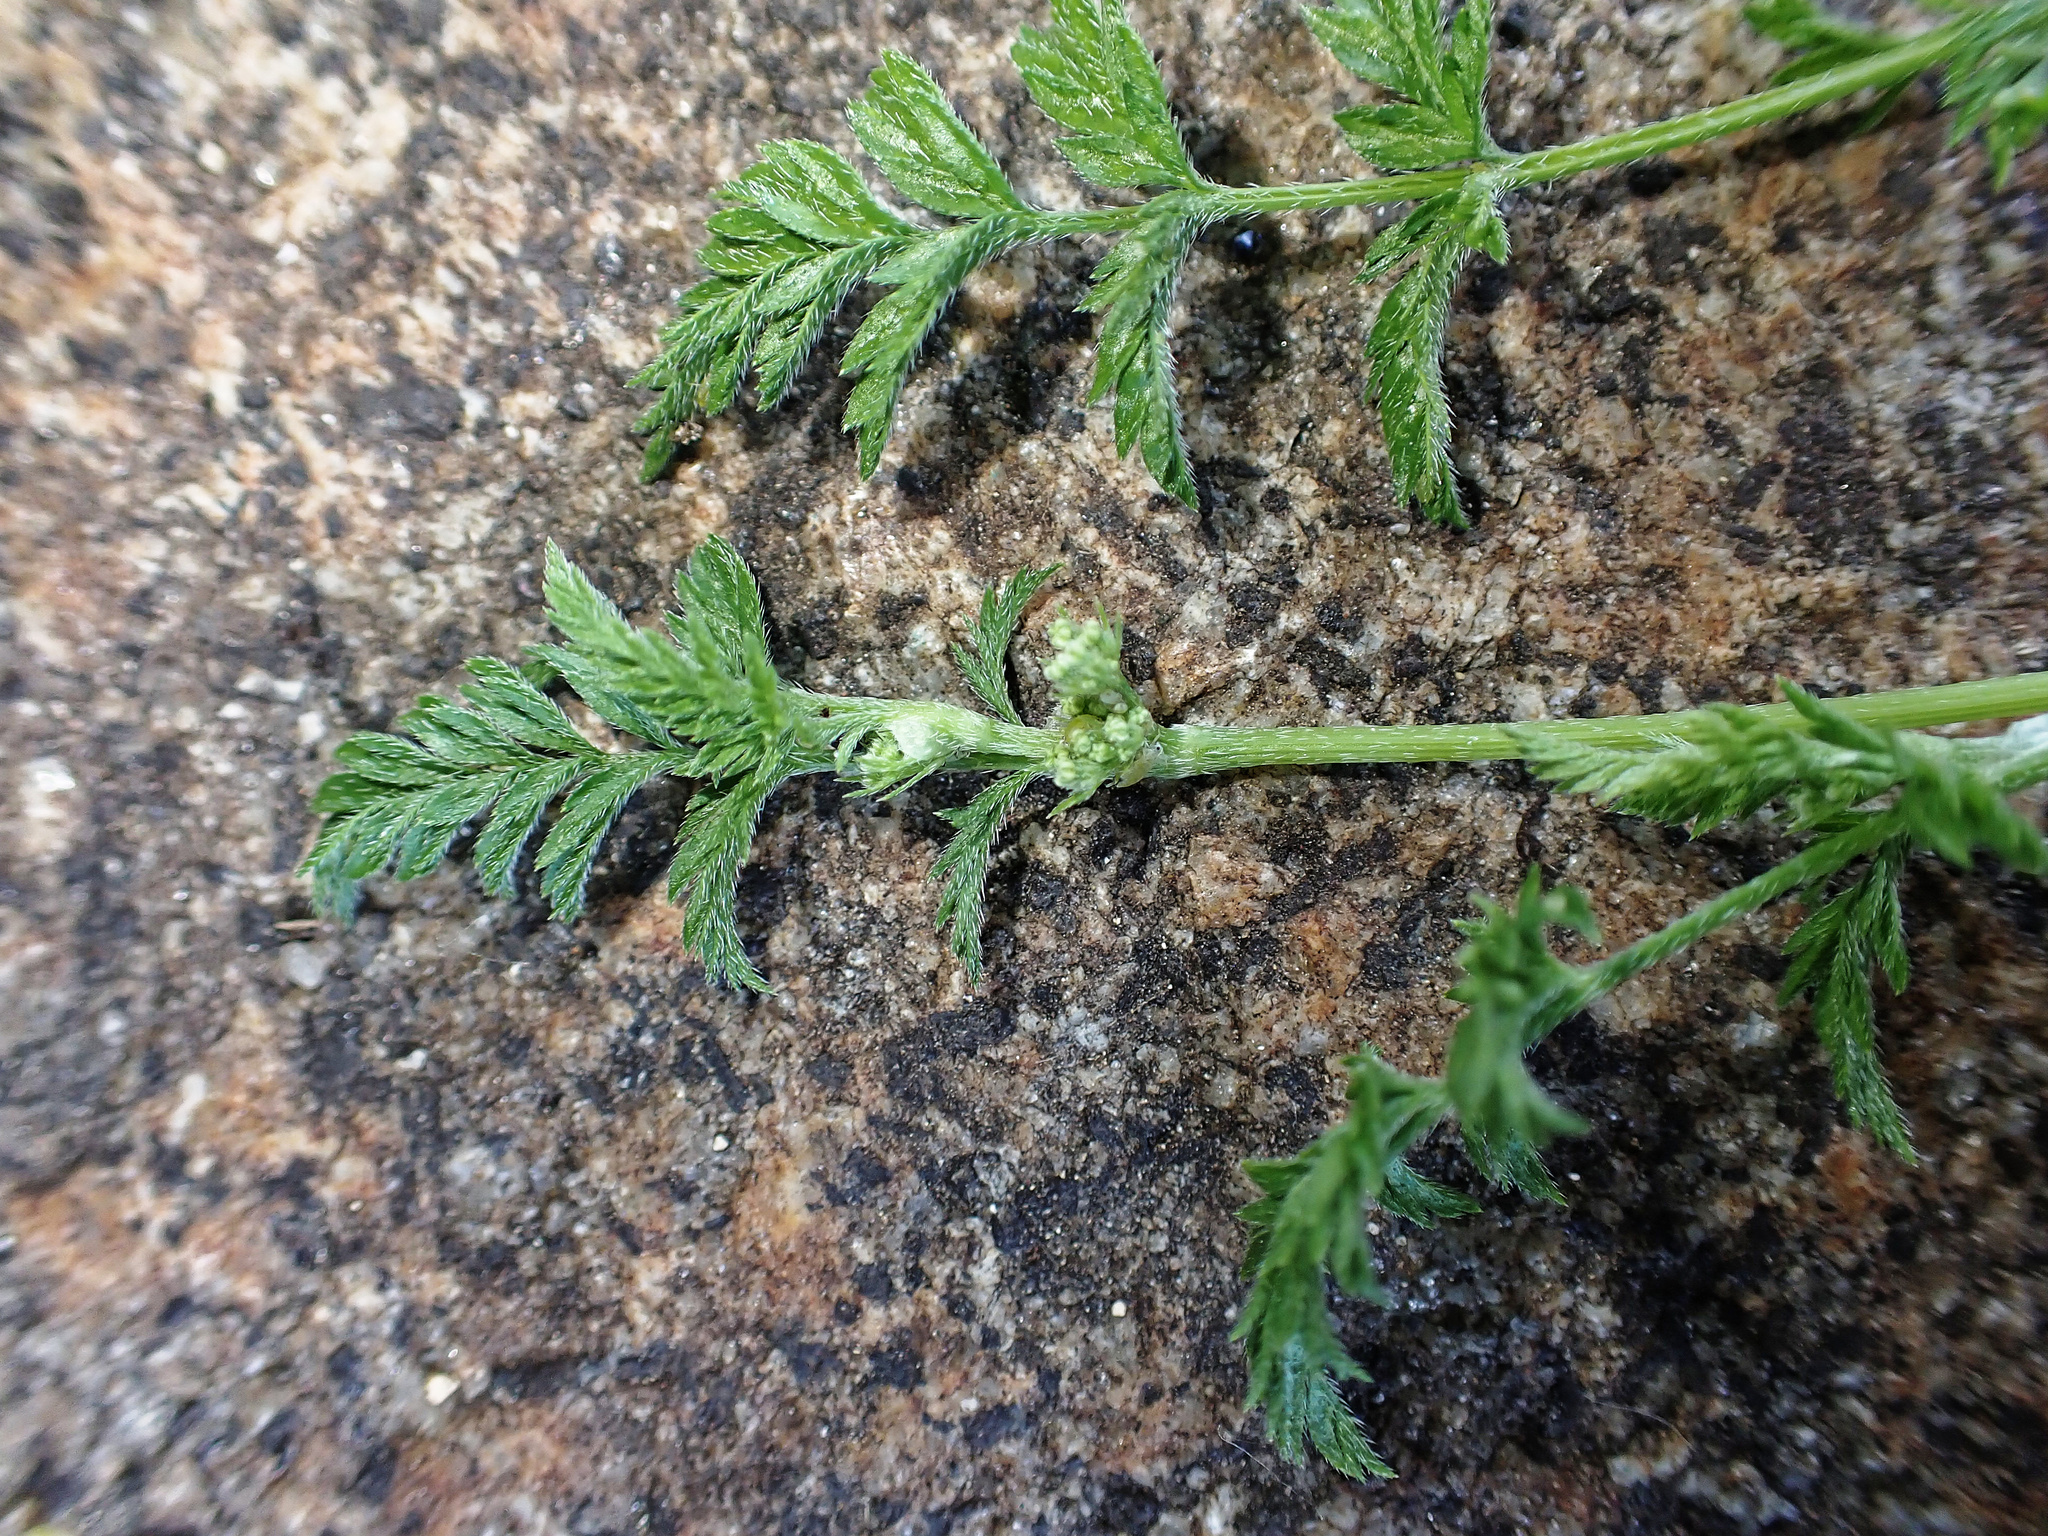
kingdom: Plantae
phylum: Tracheophyta
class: Magnoliopsida
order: Apiales
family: Apiaceae
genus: Torilis
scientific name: Torilis nodosa
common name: Knotted hedge-parsley
